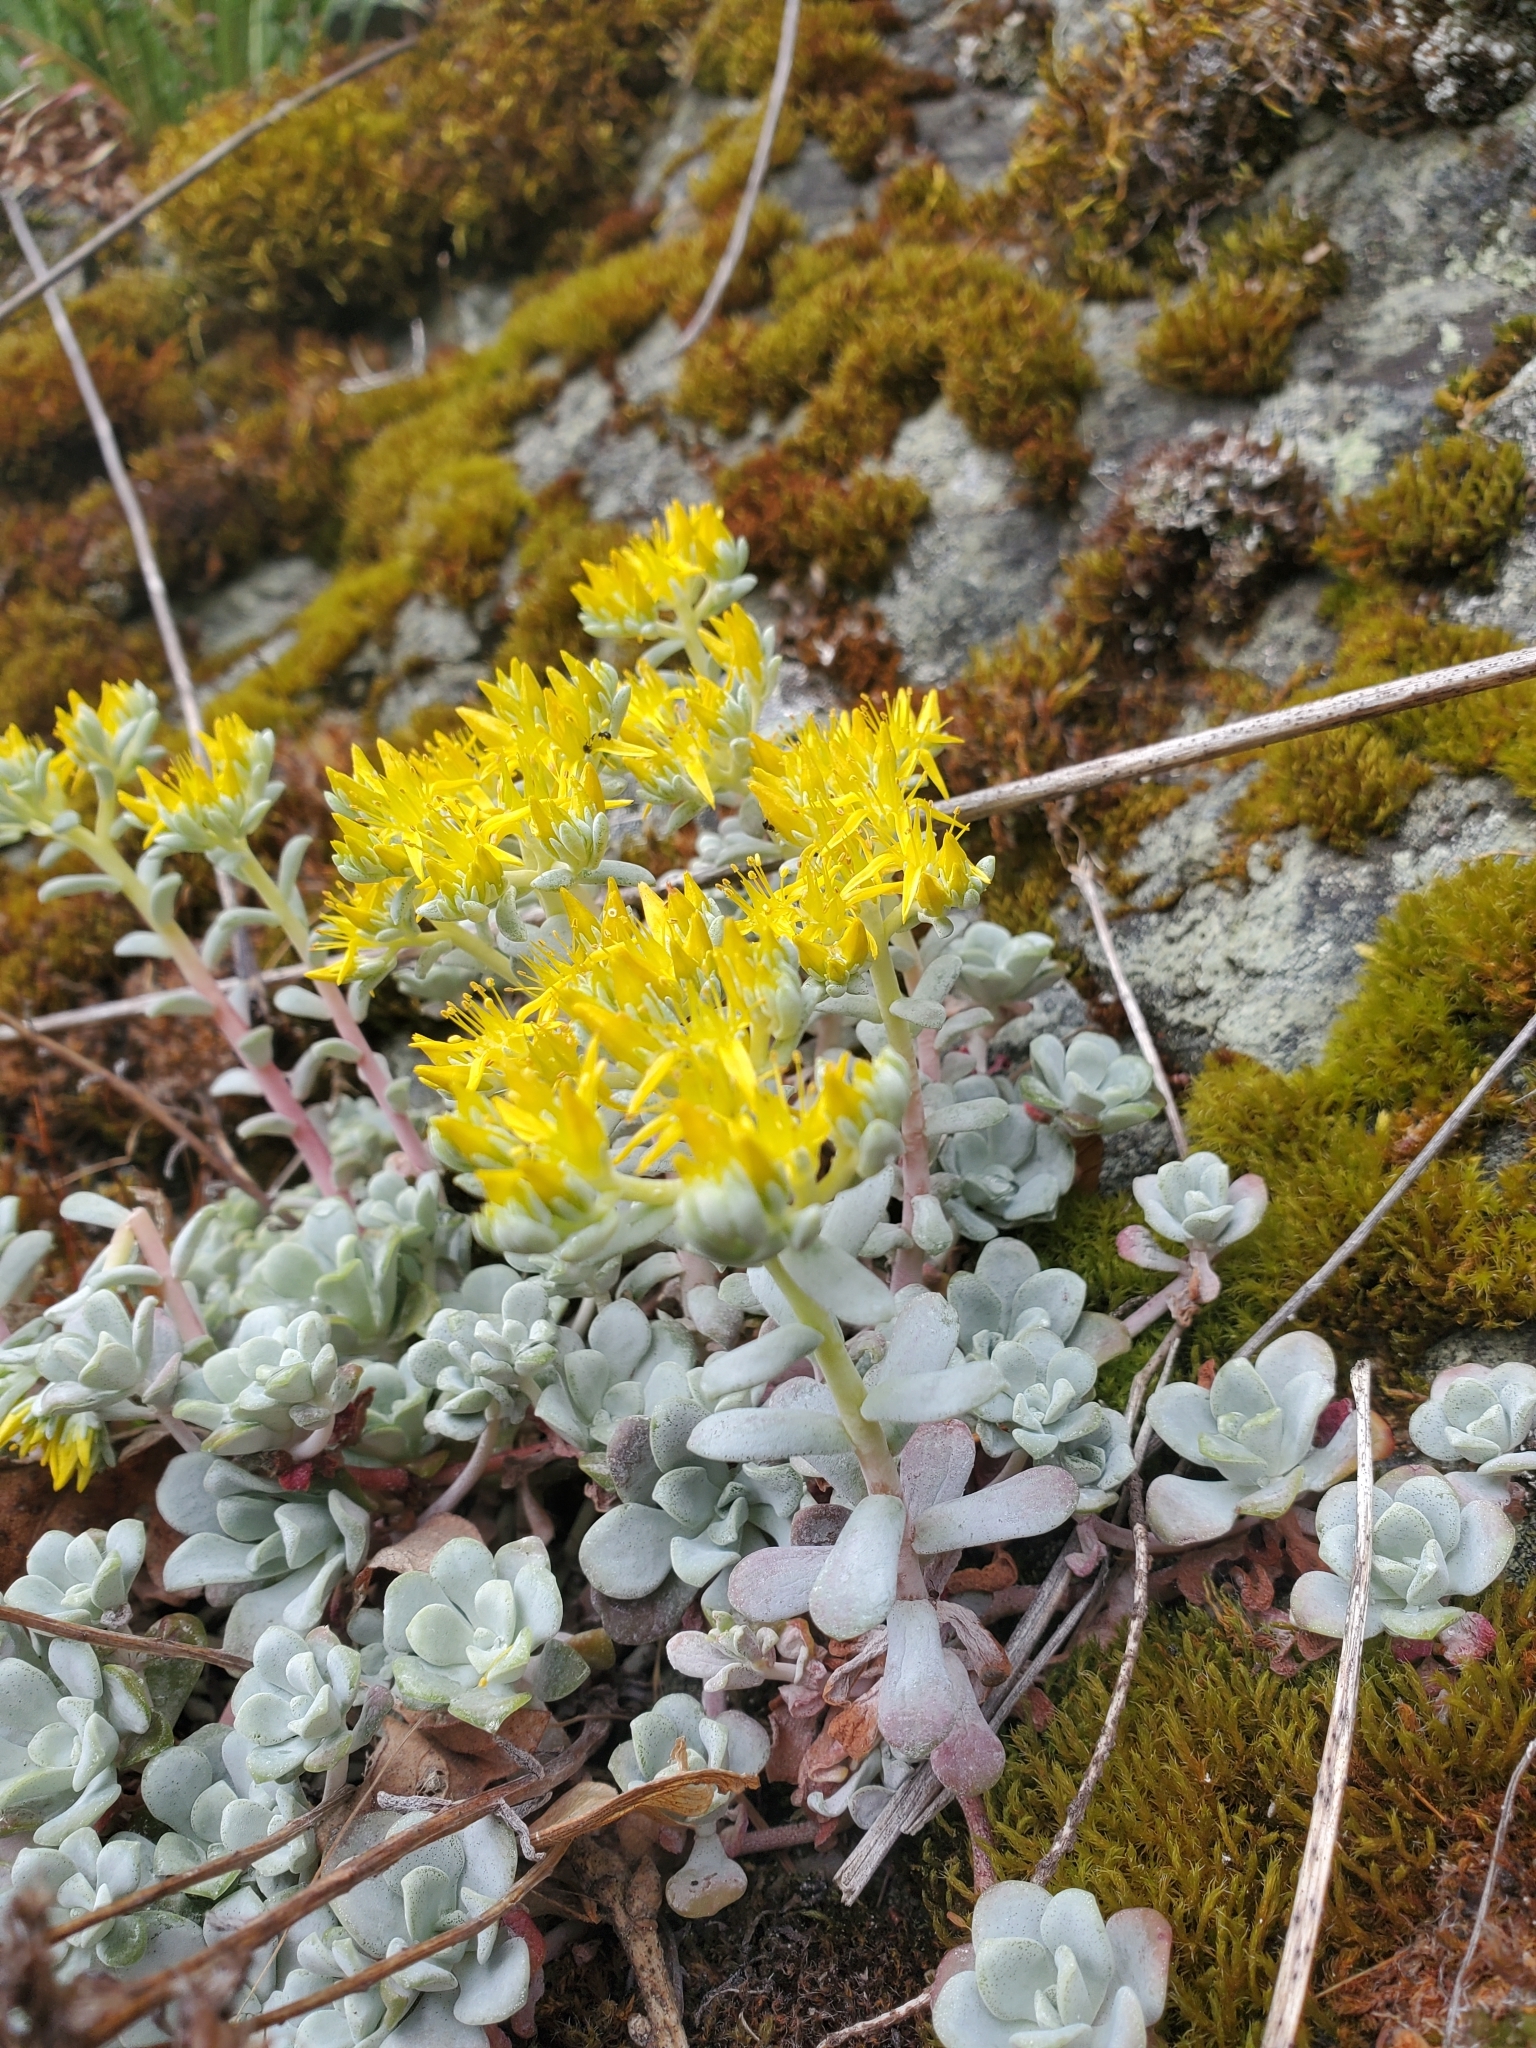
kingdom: Plantae
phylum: Tracheophyta
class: Magnoliopsida
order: Saxifragales
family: Crassulaceae
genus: Sedum
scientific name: Sedum spathulifolium
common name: Colorado stonecrop
